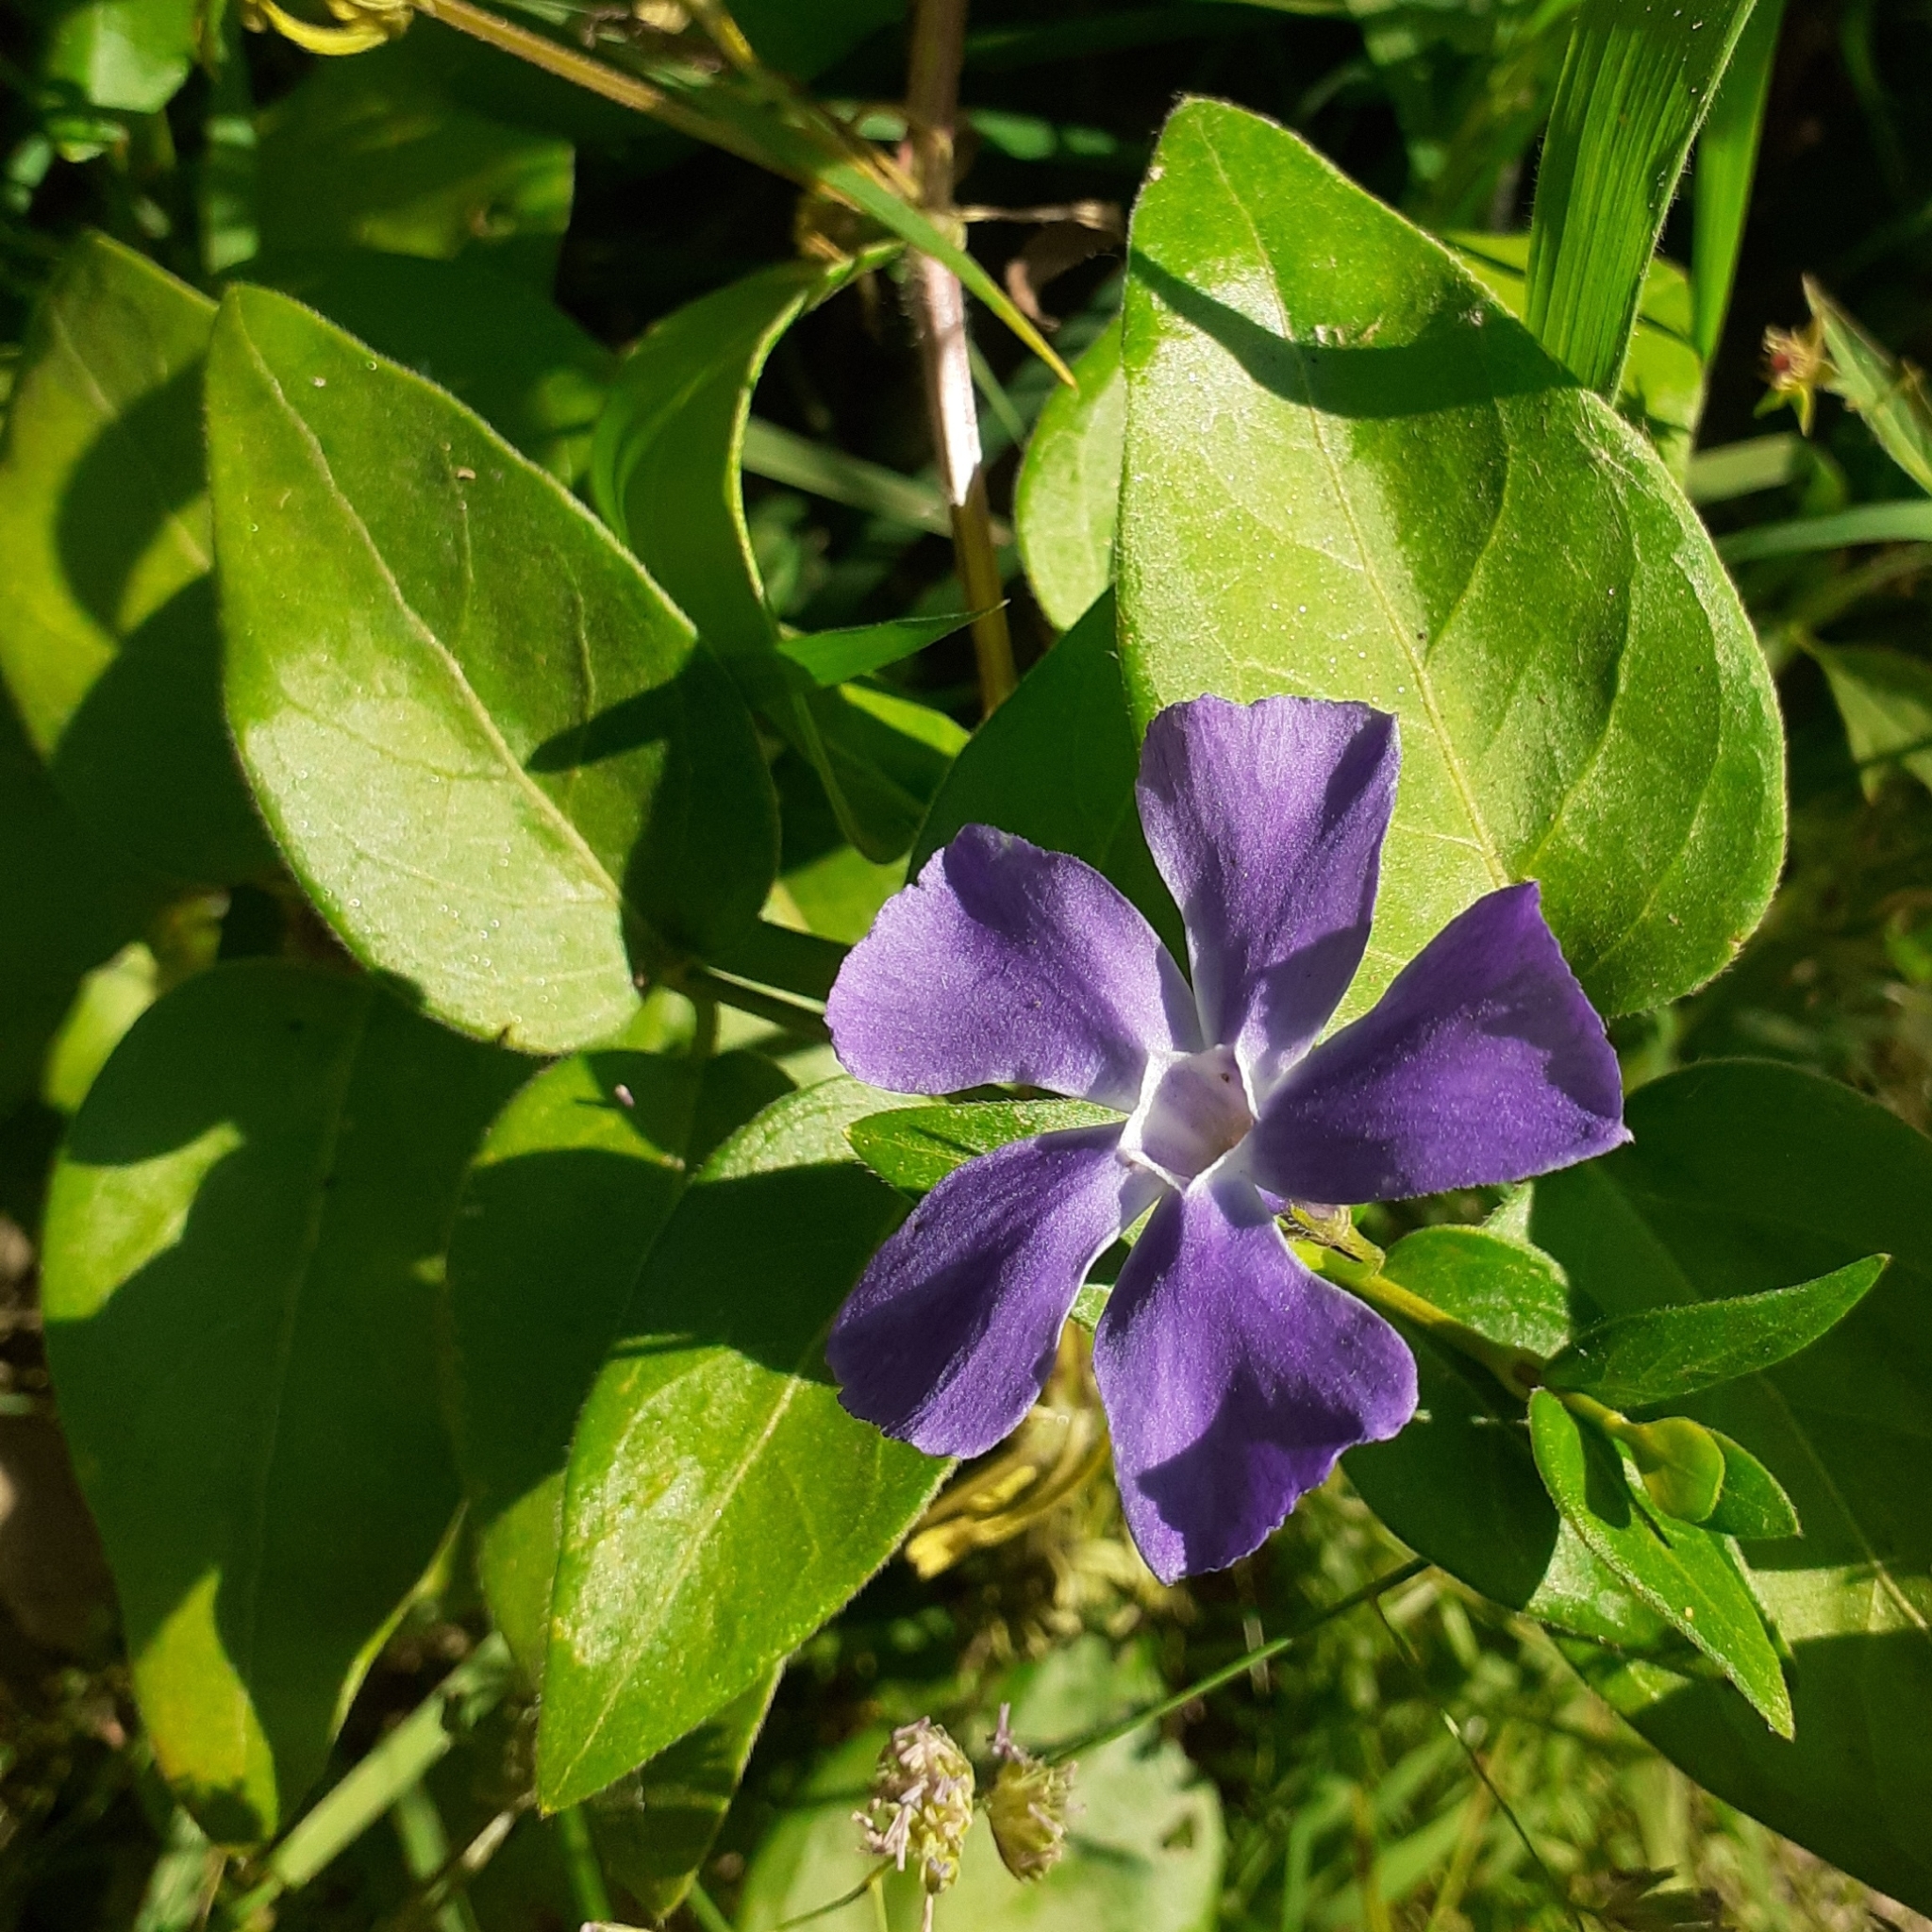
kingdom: Plantae
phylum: Tracheophyta
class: Magnoliopsida
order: Gentianales
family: Apocynaceae
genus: Vinca
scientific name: Vinca major
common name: Greater periwinkle
